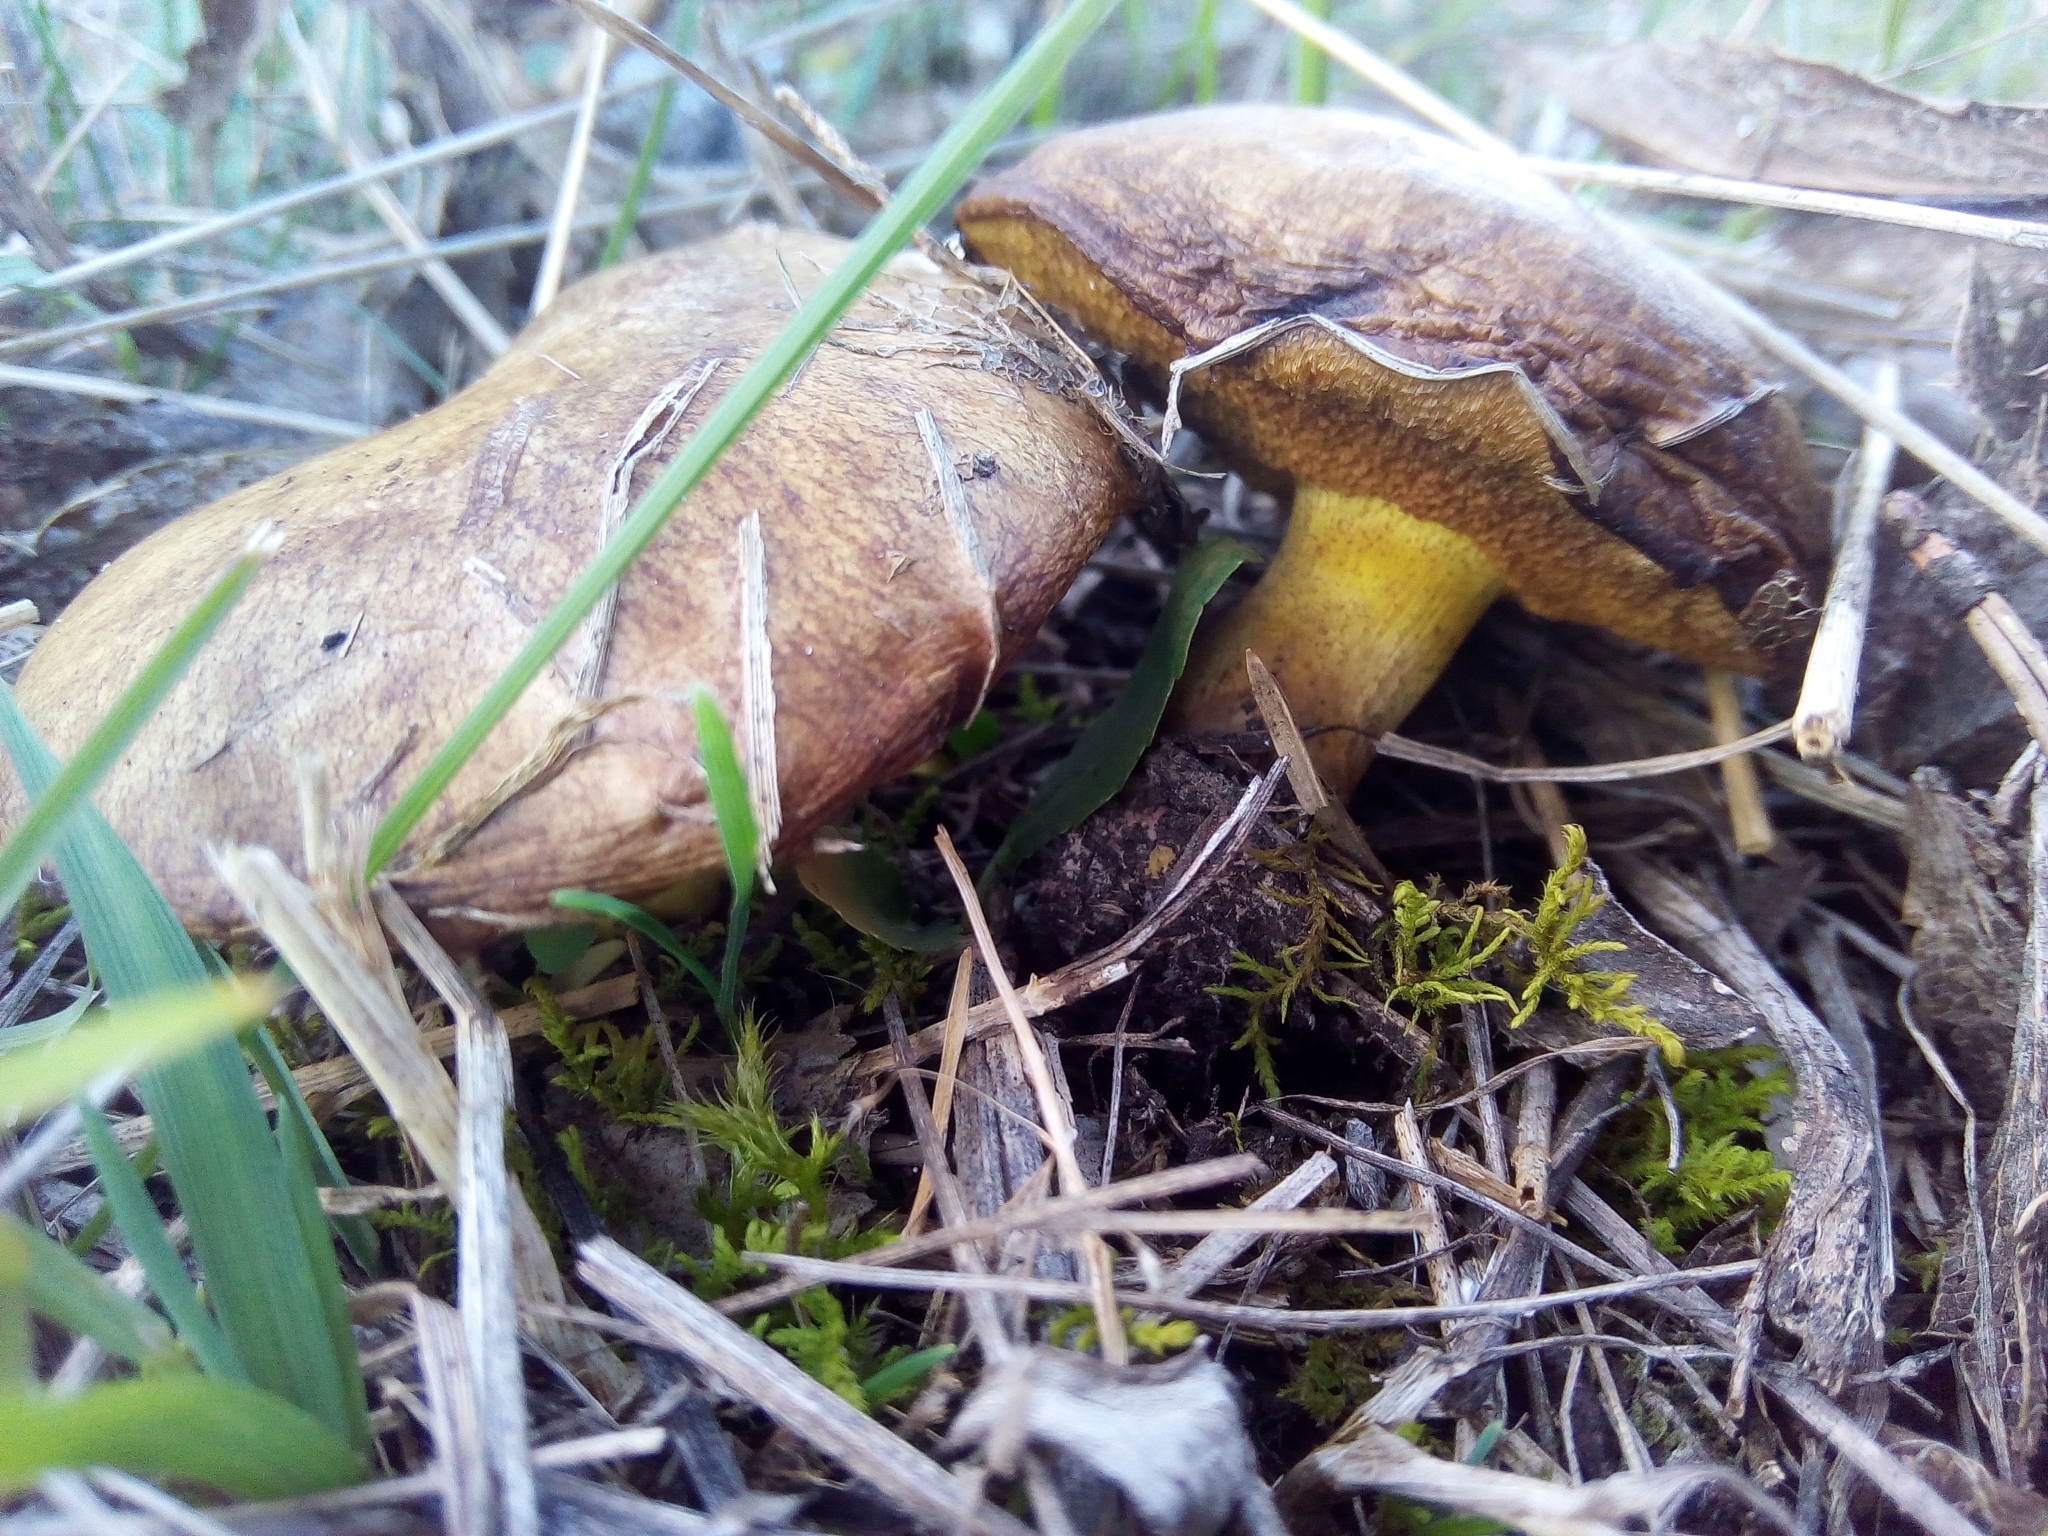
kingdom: Fungi
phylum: Basidiomycota
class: Agaricomycetes
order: Boletales
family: Suillaceae
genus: Suillus
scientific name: Suillus collinitus
